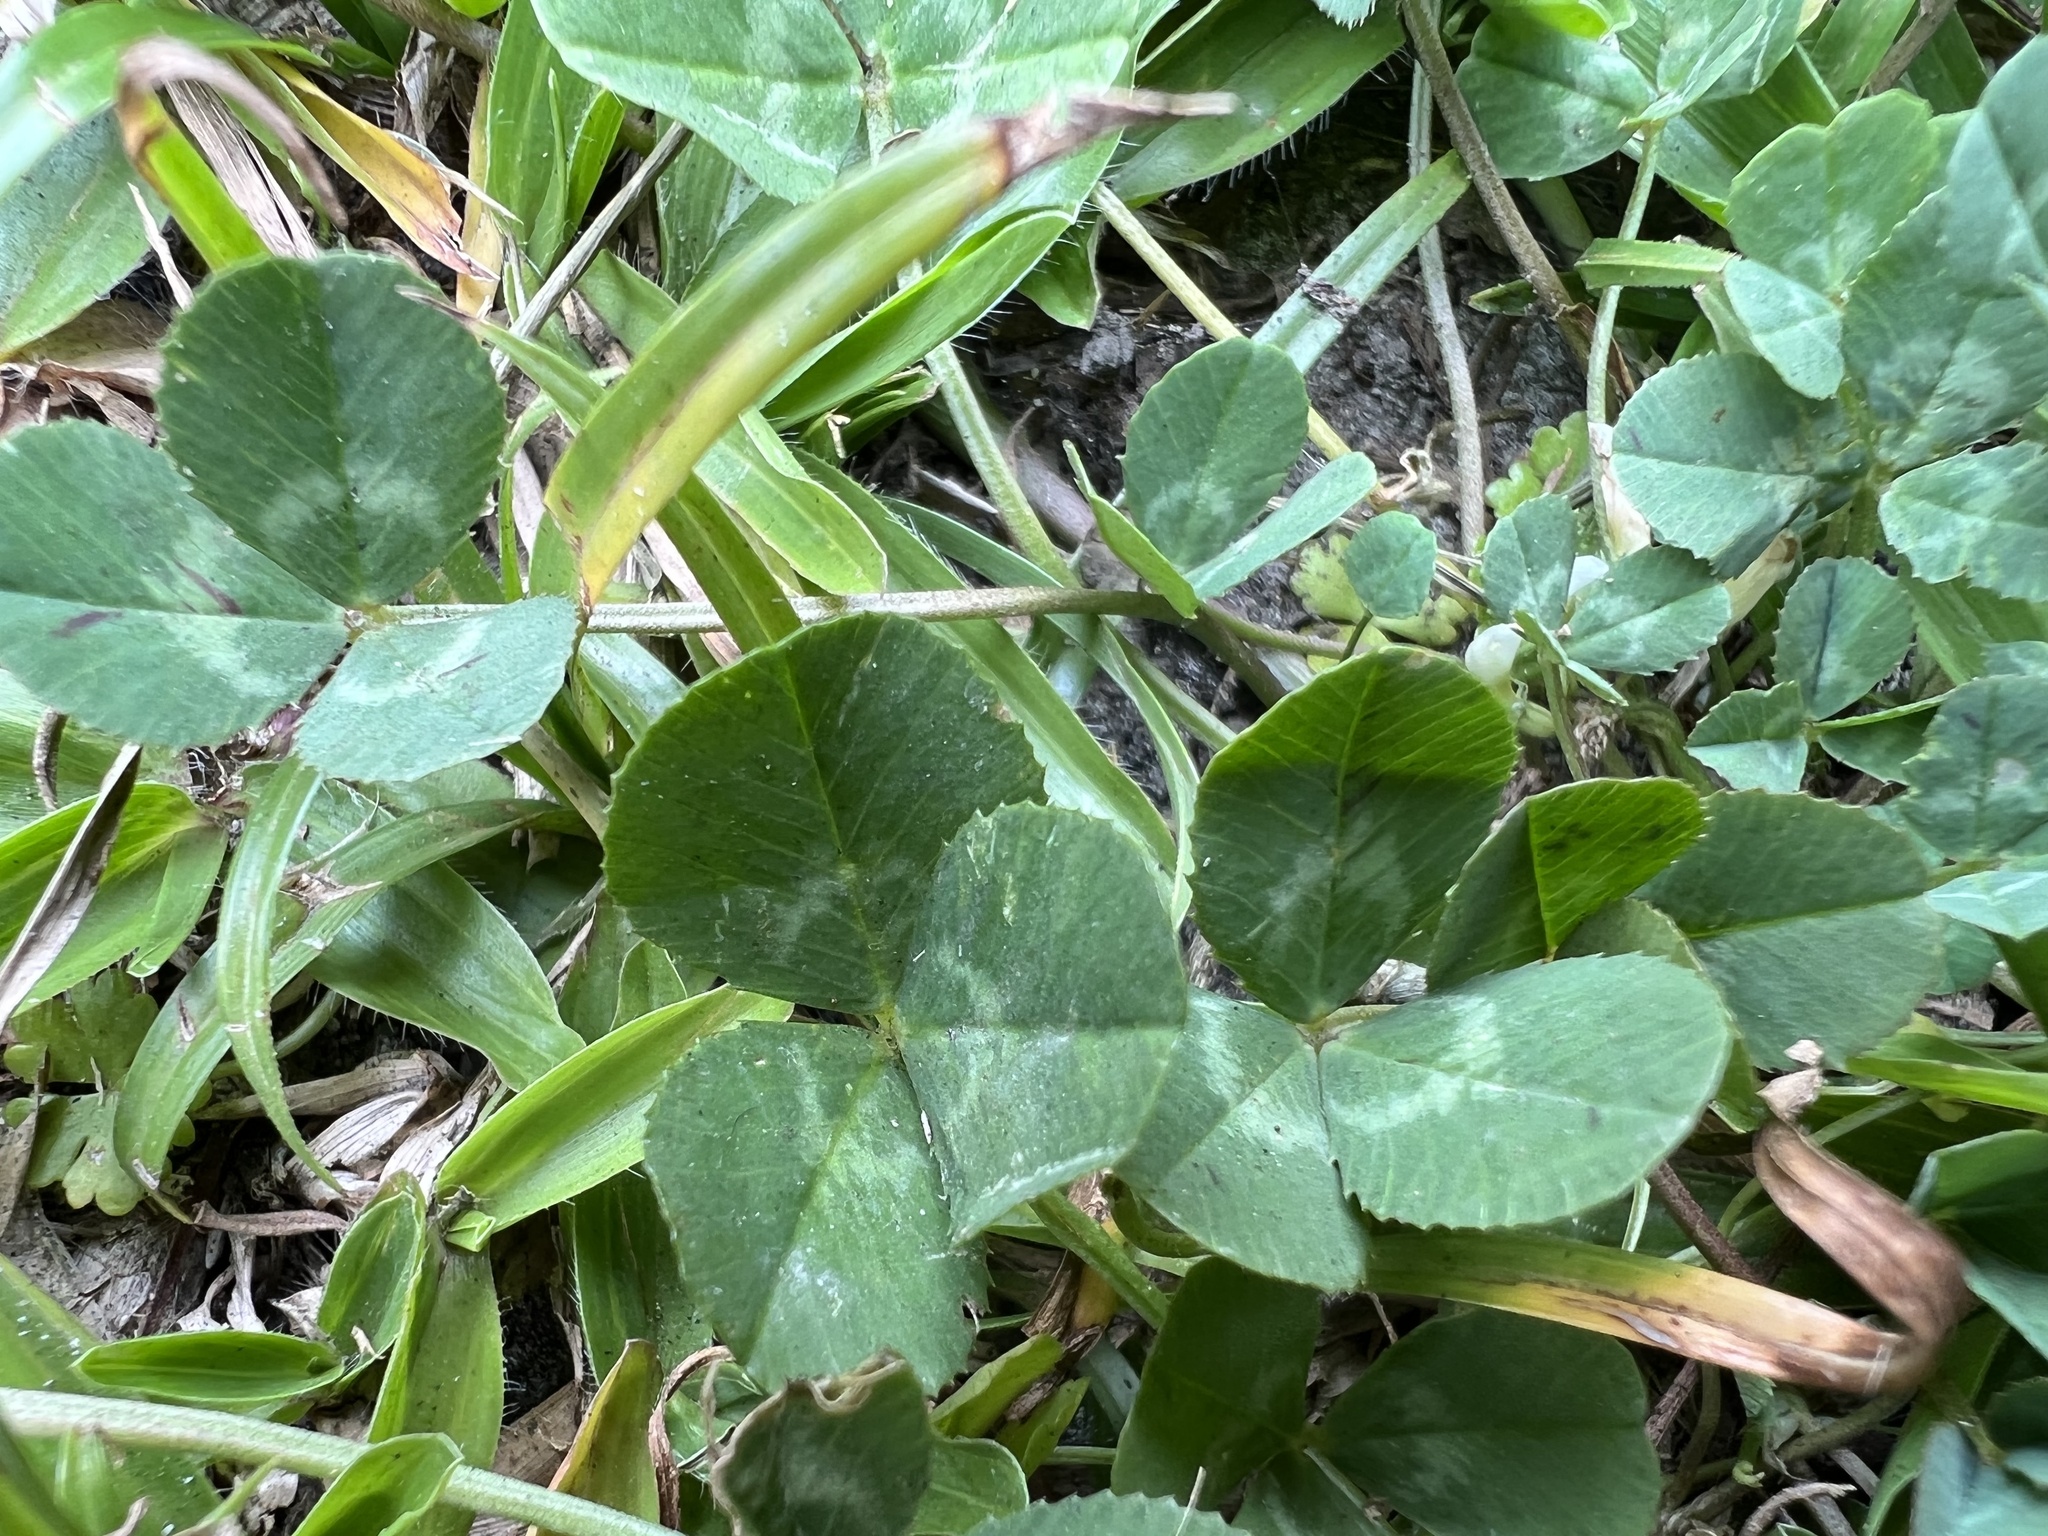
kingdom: Plantae
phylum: Tracheophyta
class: Magnoliopsida
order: Fabales
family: Fabaceae
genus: Trifolium
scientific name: Trifolium repens
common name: White clover
